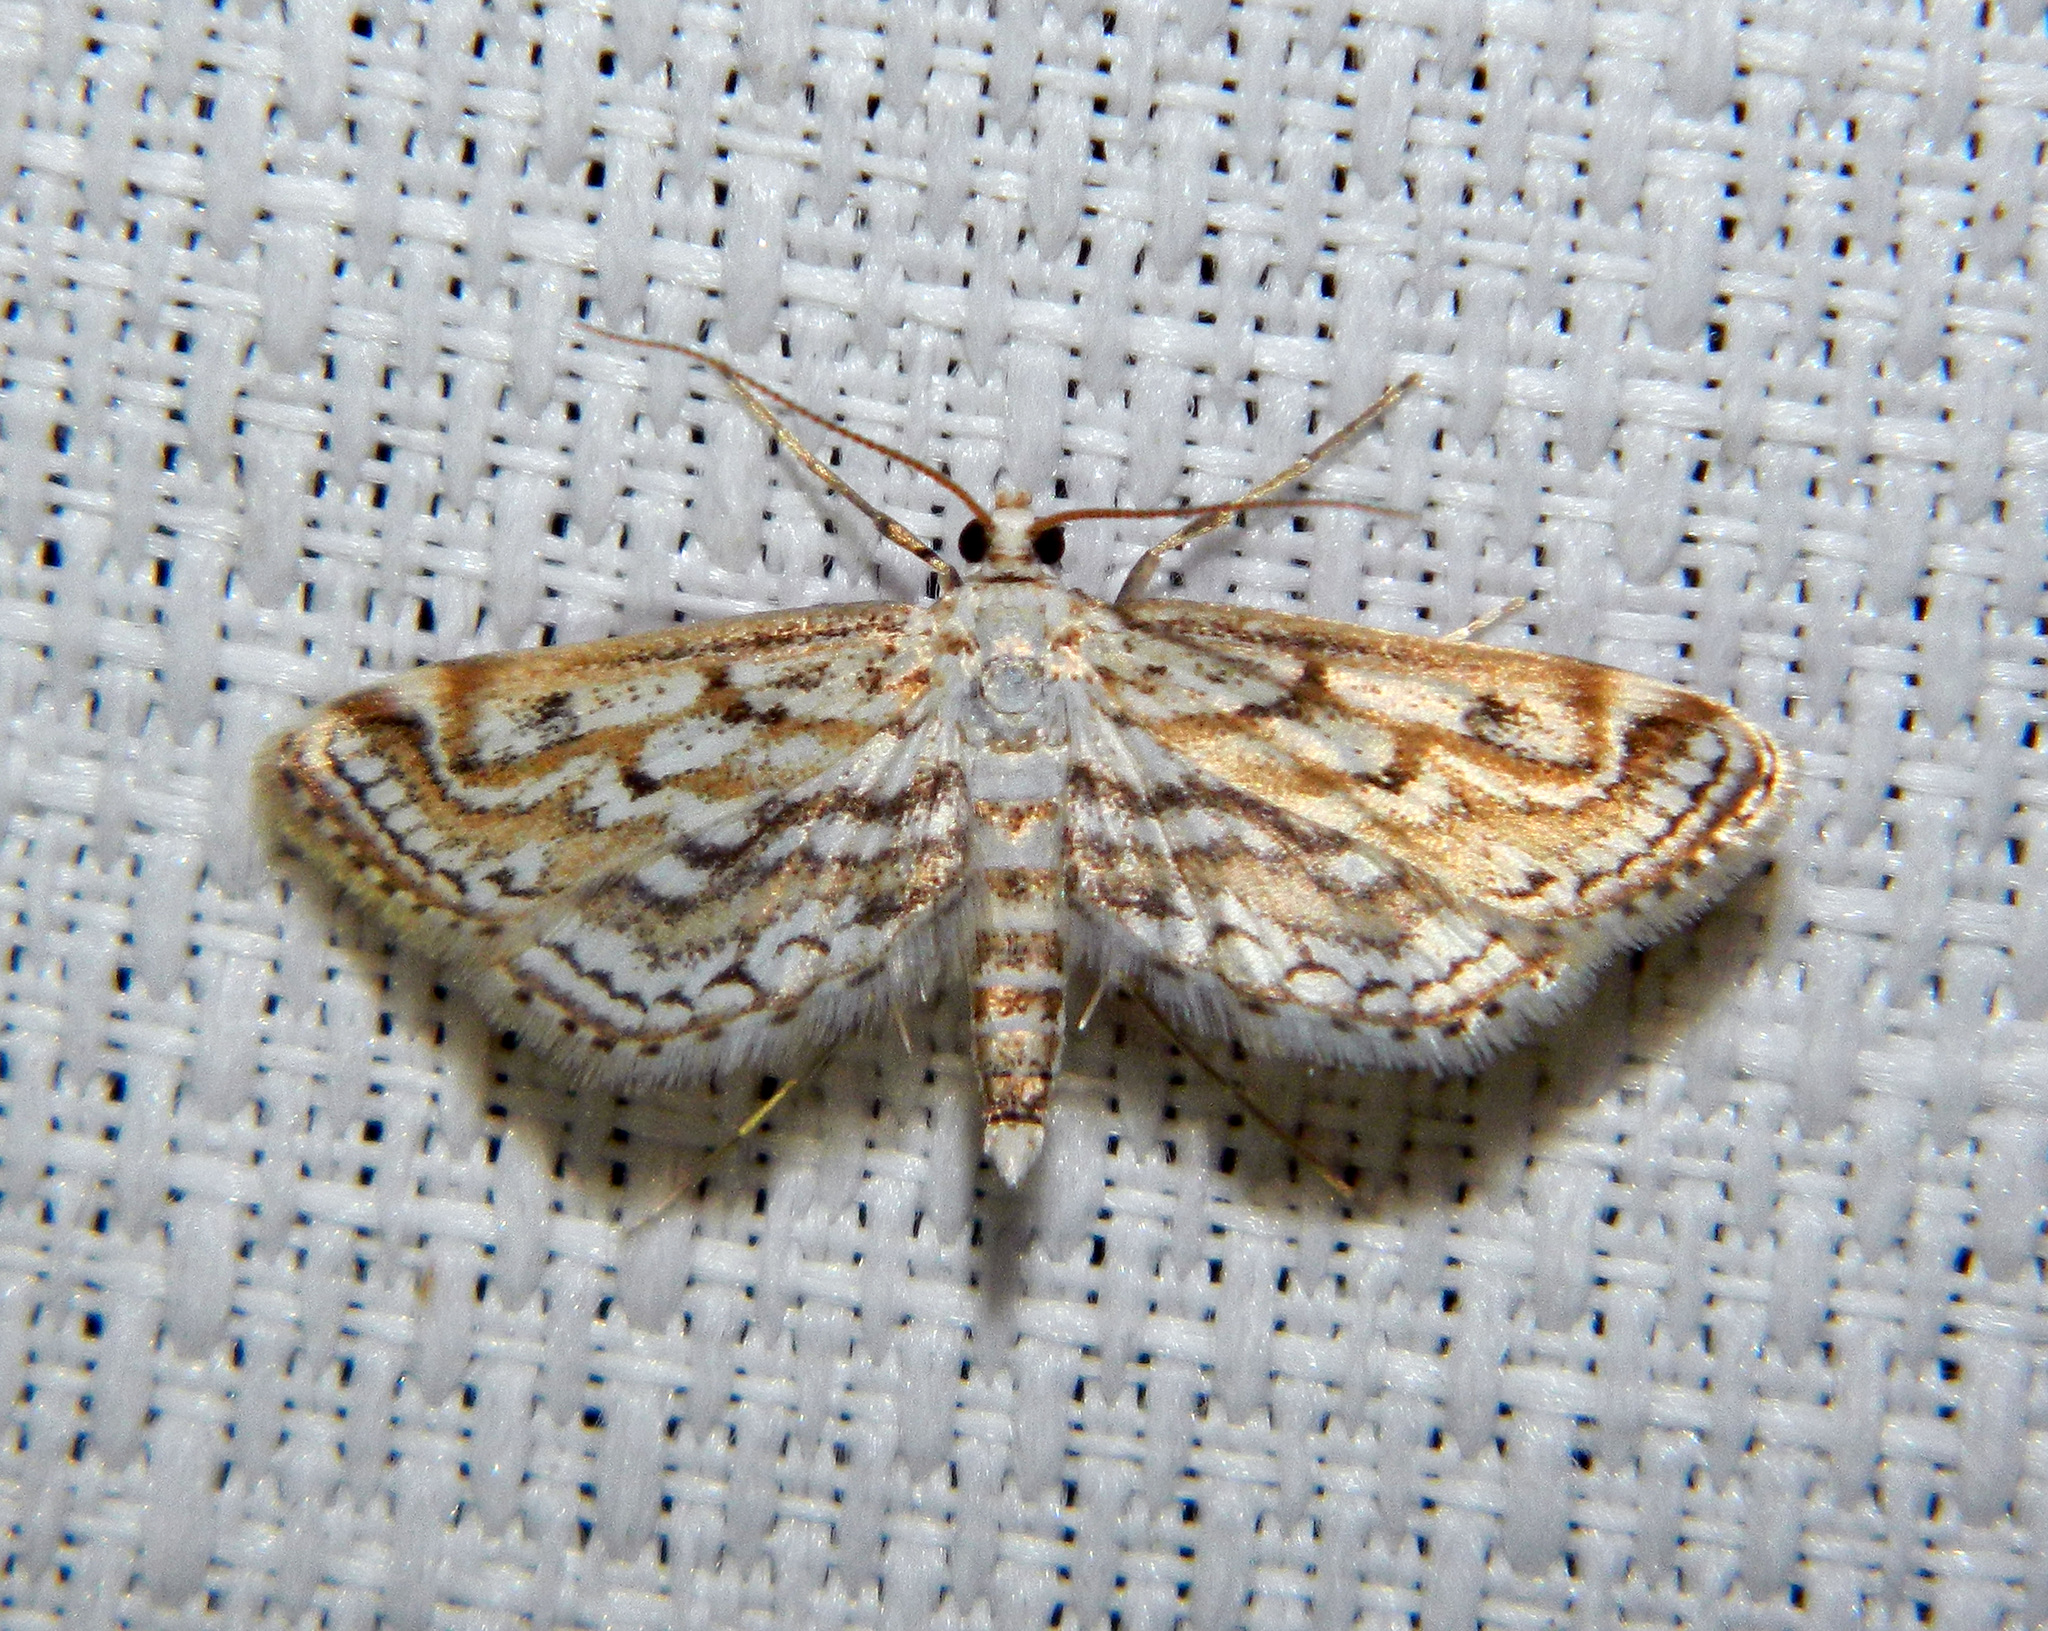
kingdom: Animalia
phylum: Arthropoda
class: Insecta
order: Lepidoptera
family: Crambidae
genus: Parapoynx
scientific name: Parapoynx allionealis
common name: Bladderwort casemaker
